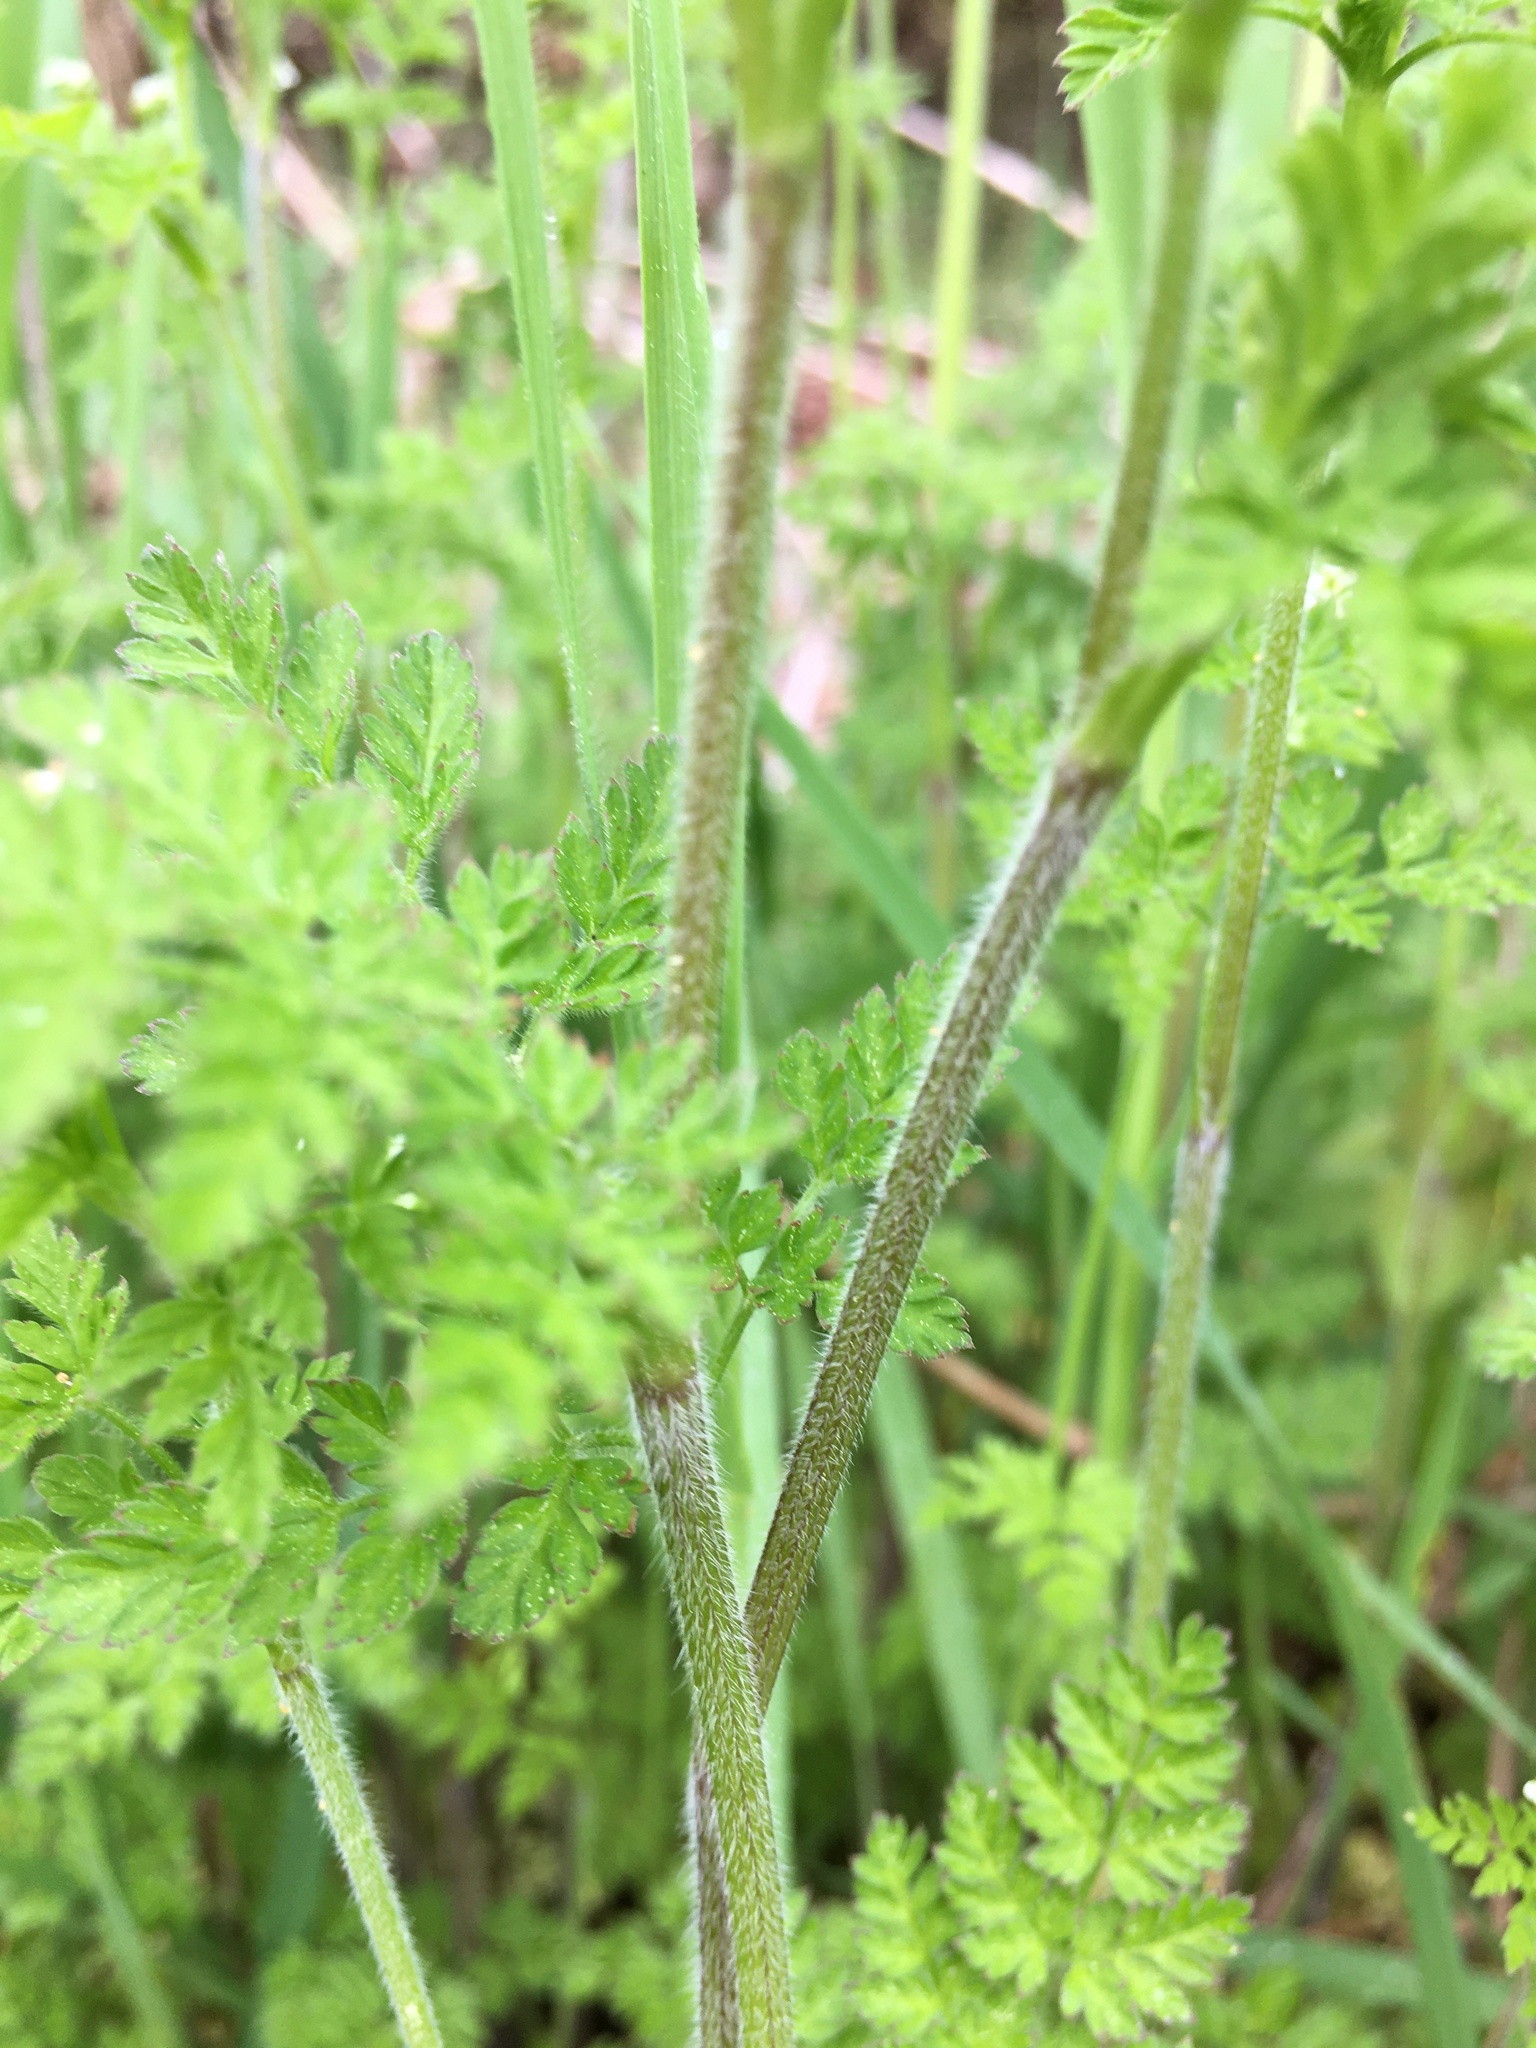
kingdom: Plantae
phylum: Tracheophyta
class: Magnoliopsida
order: Apiales
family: Apiaceae
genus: Chaerophyllum
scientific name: Chaerophyllum tainturieri
